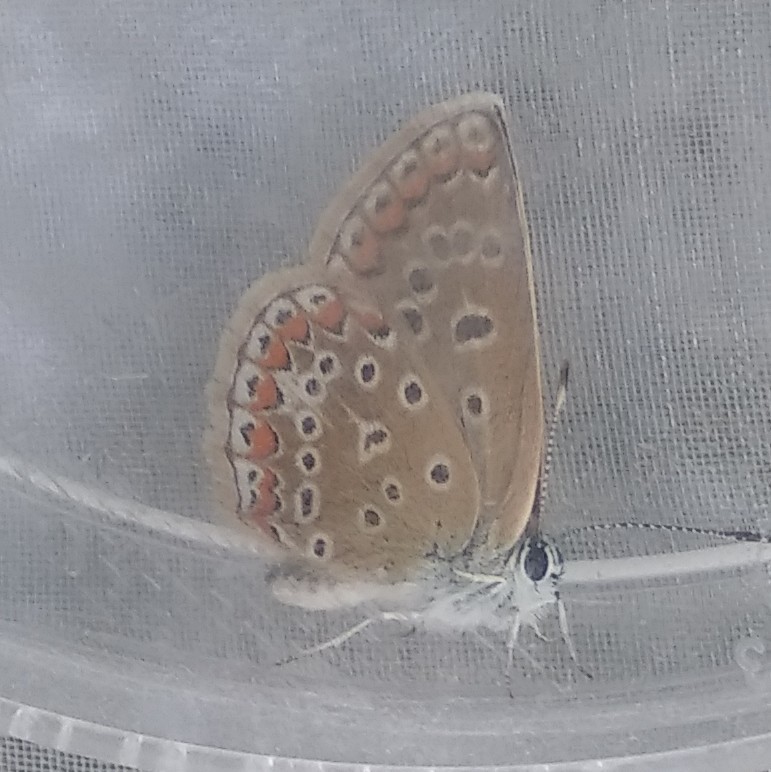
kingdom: Animalia
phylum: Arthropoda
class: Insecta
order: Lepidoptera
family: Lycaenidae
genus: Polyommatus
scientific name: Polyommatus icarus
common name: Common blue
